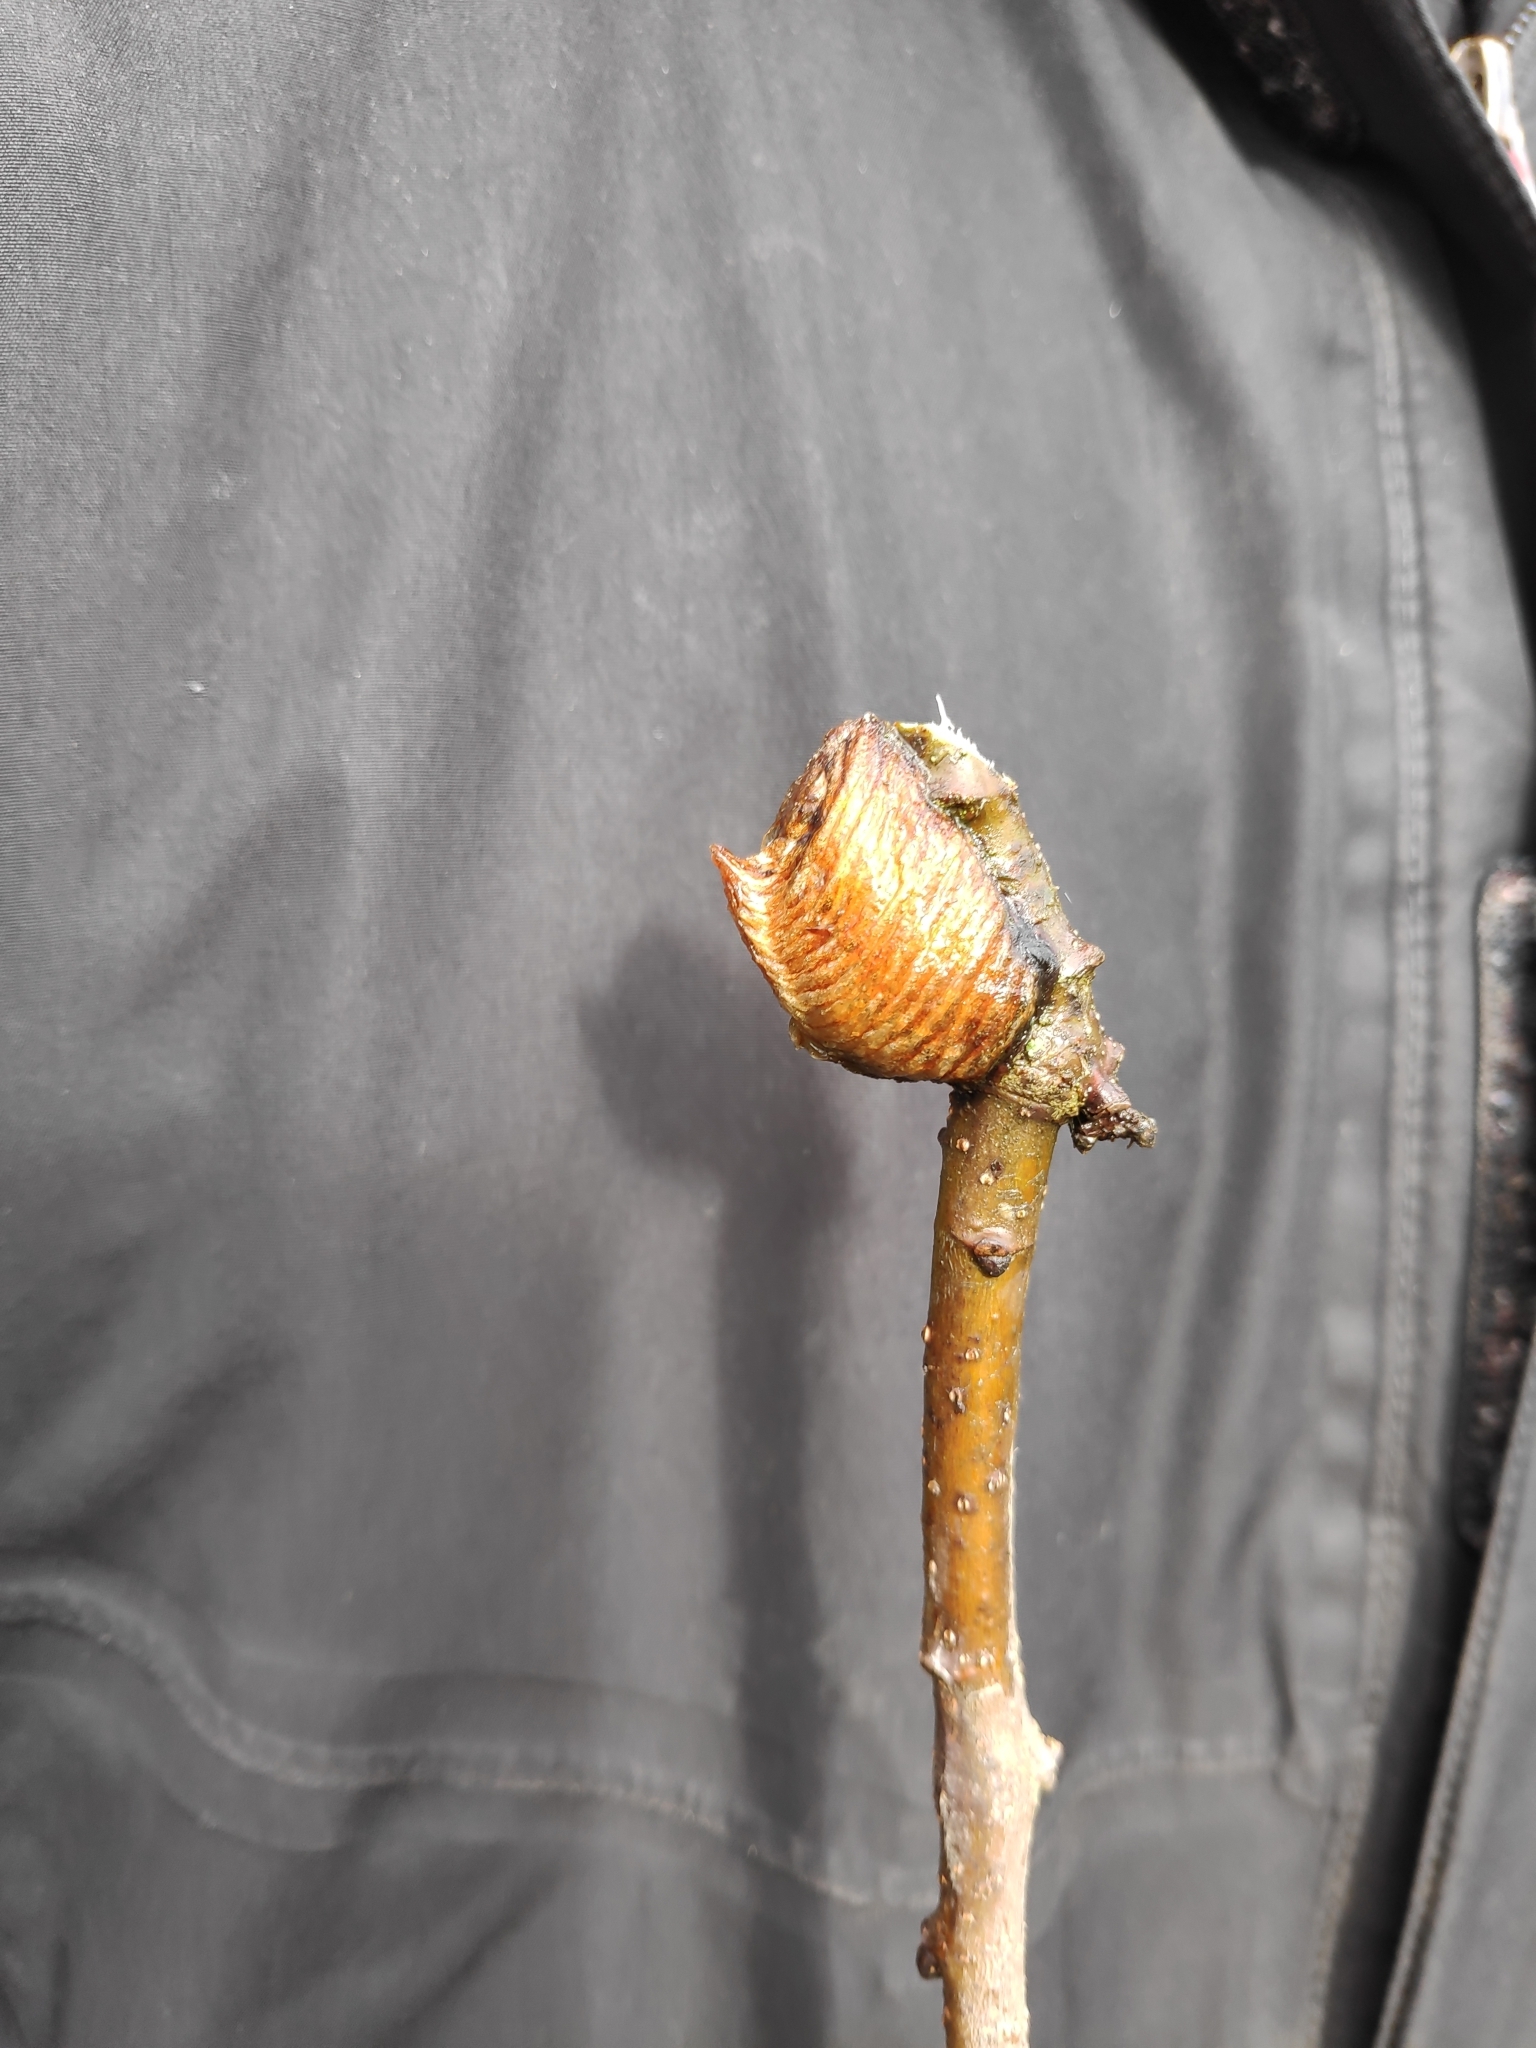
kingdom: Animalia
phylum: Arthropoda
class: Insecta
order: Mantodea
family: Mantidae
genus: Hierodula
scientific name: Hierodula transcaucasica
